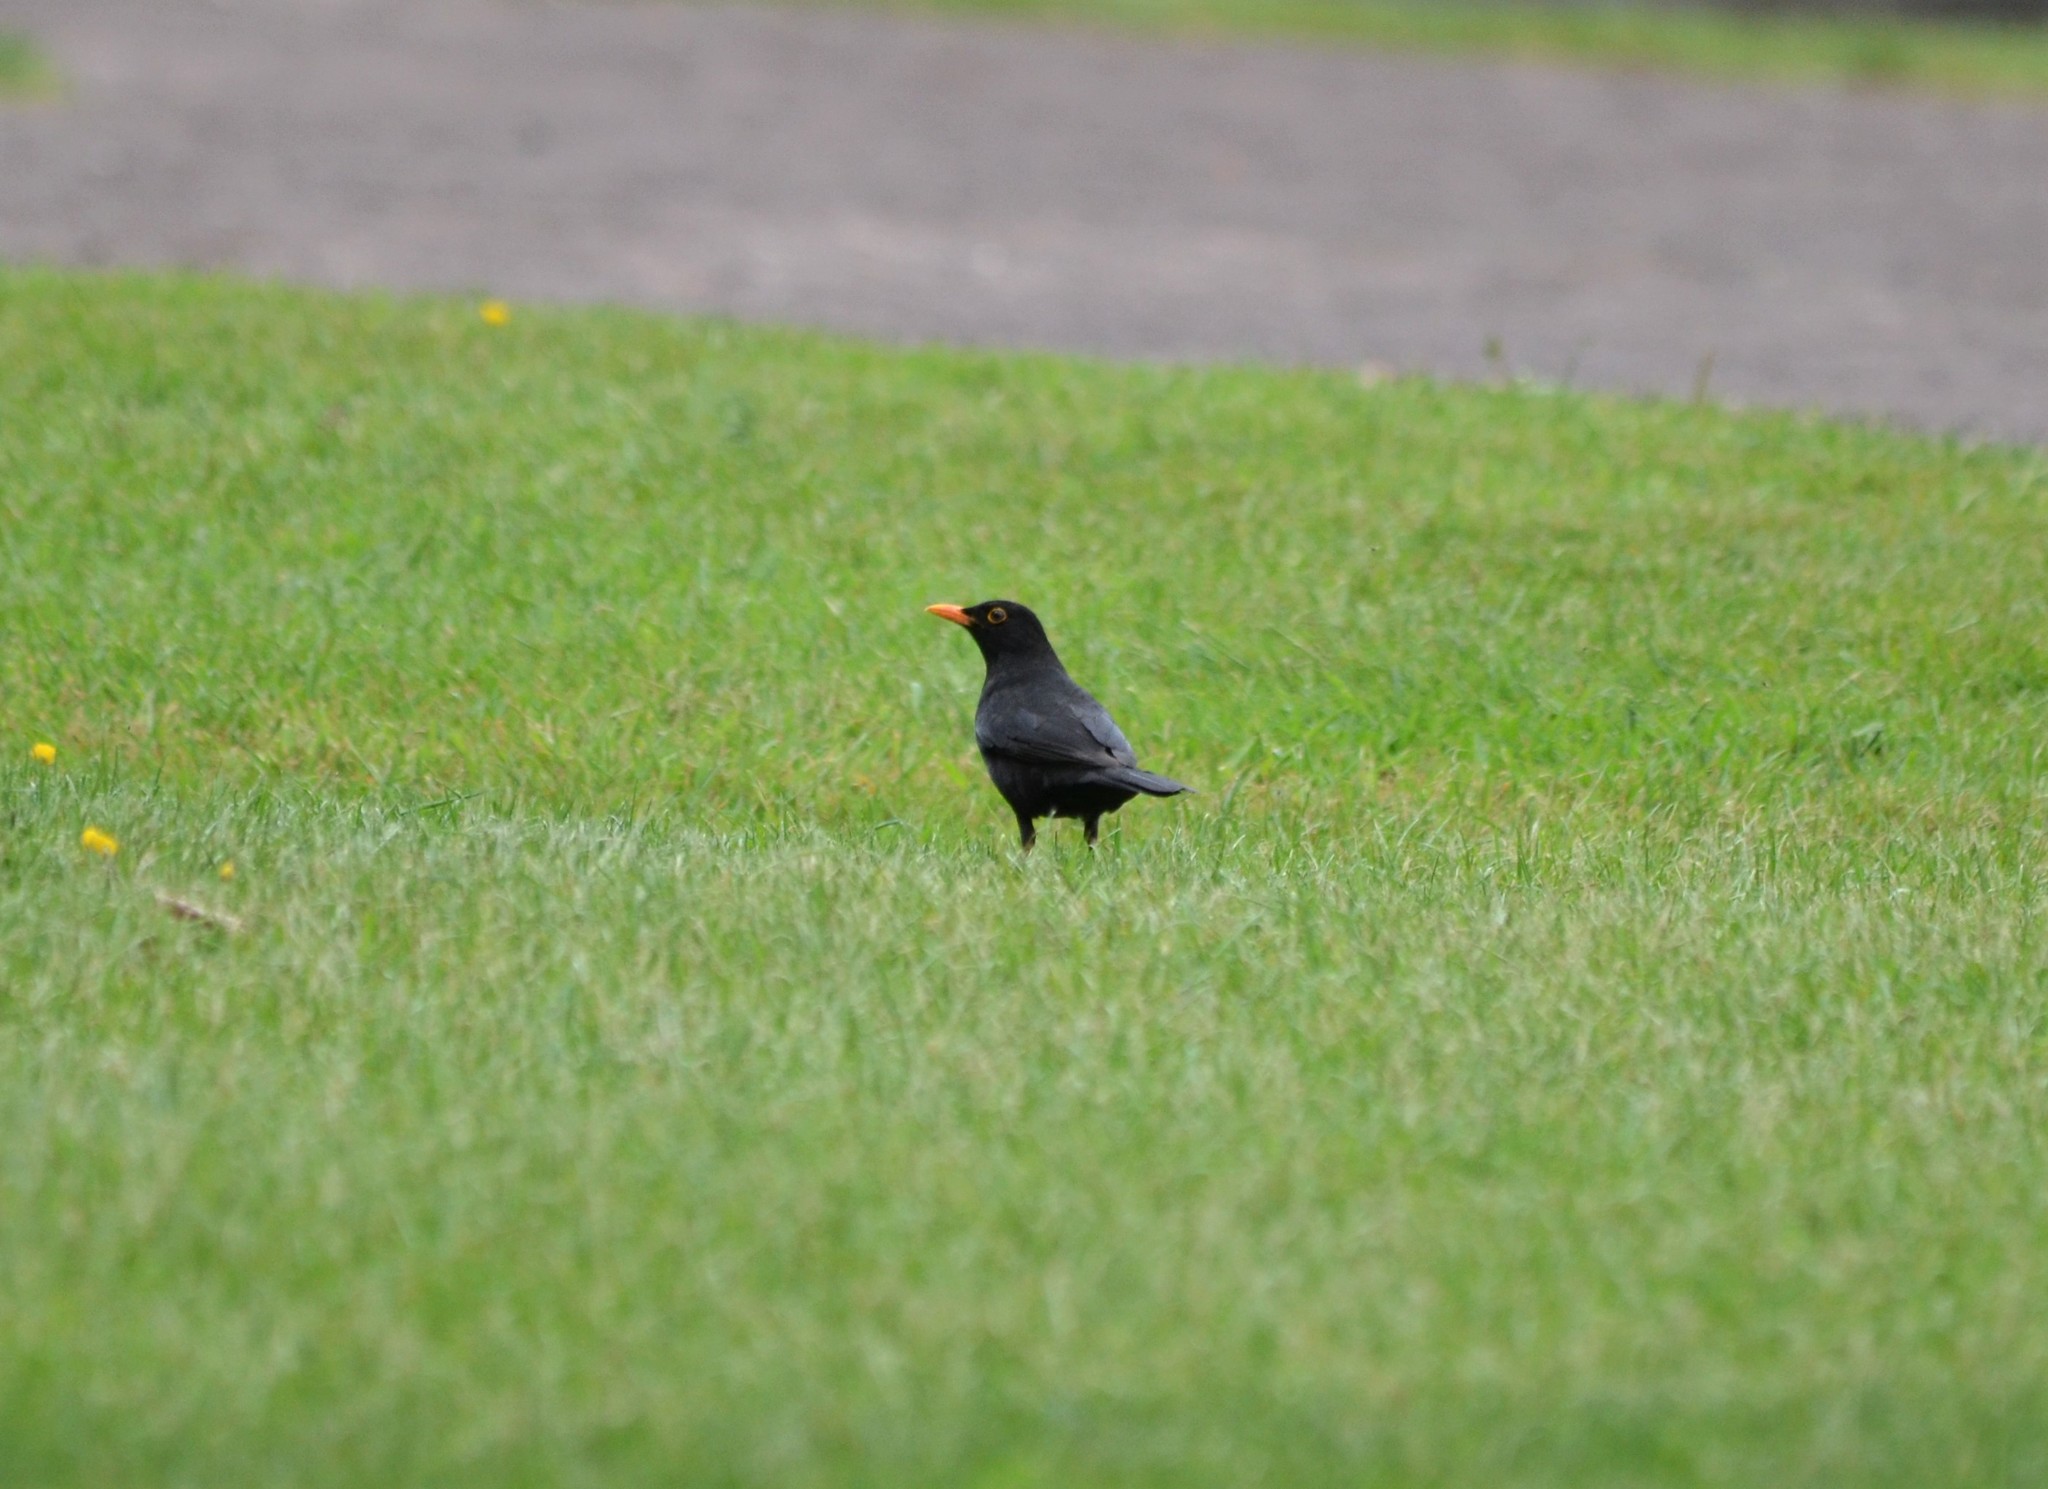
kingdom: Animalia
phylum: Chordata
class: Aves
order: Passeriformes
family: Turdidae
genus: Turdus
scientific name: Turdus merula
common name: Common blackbird
